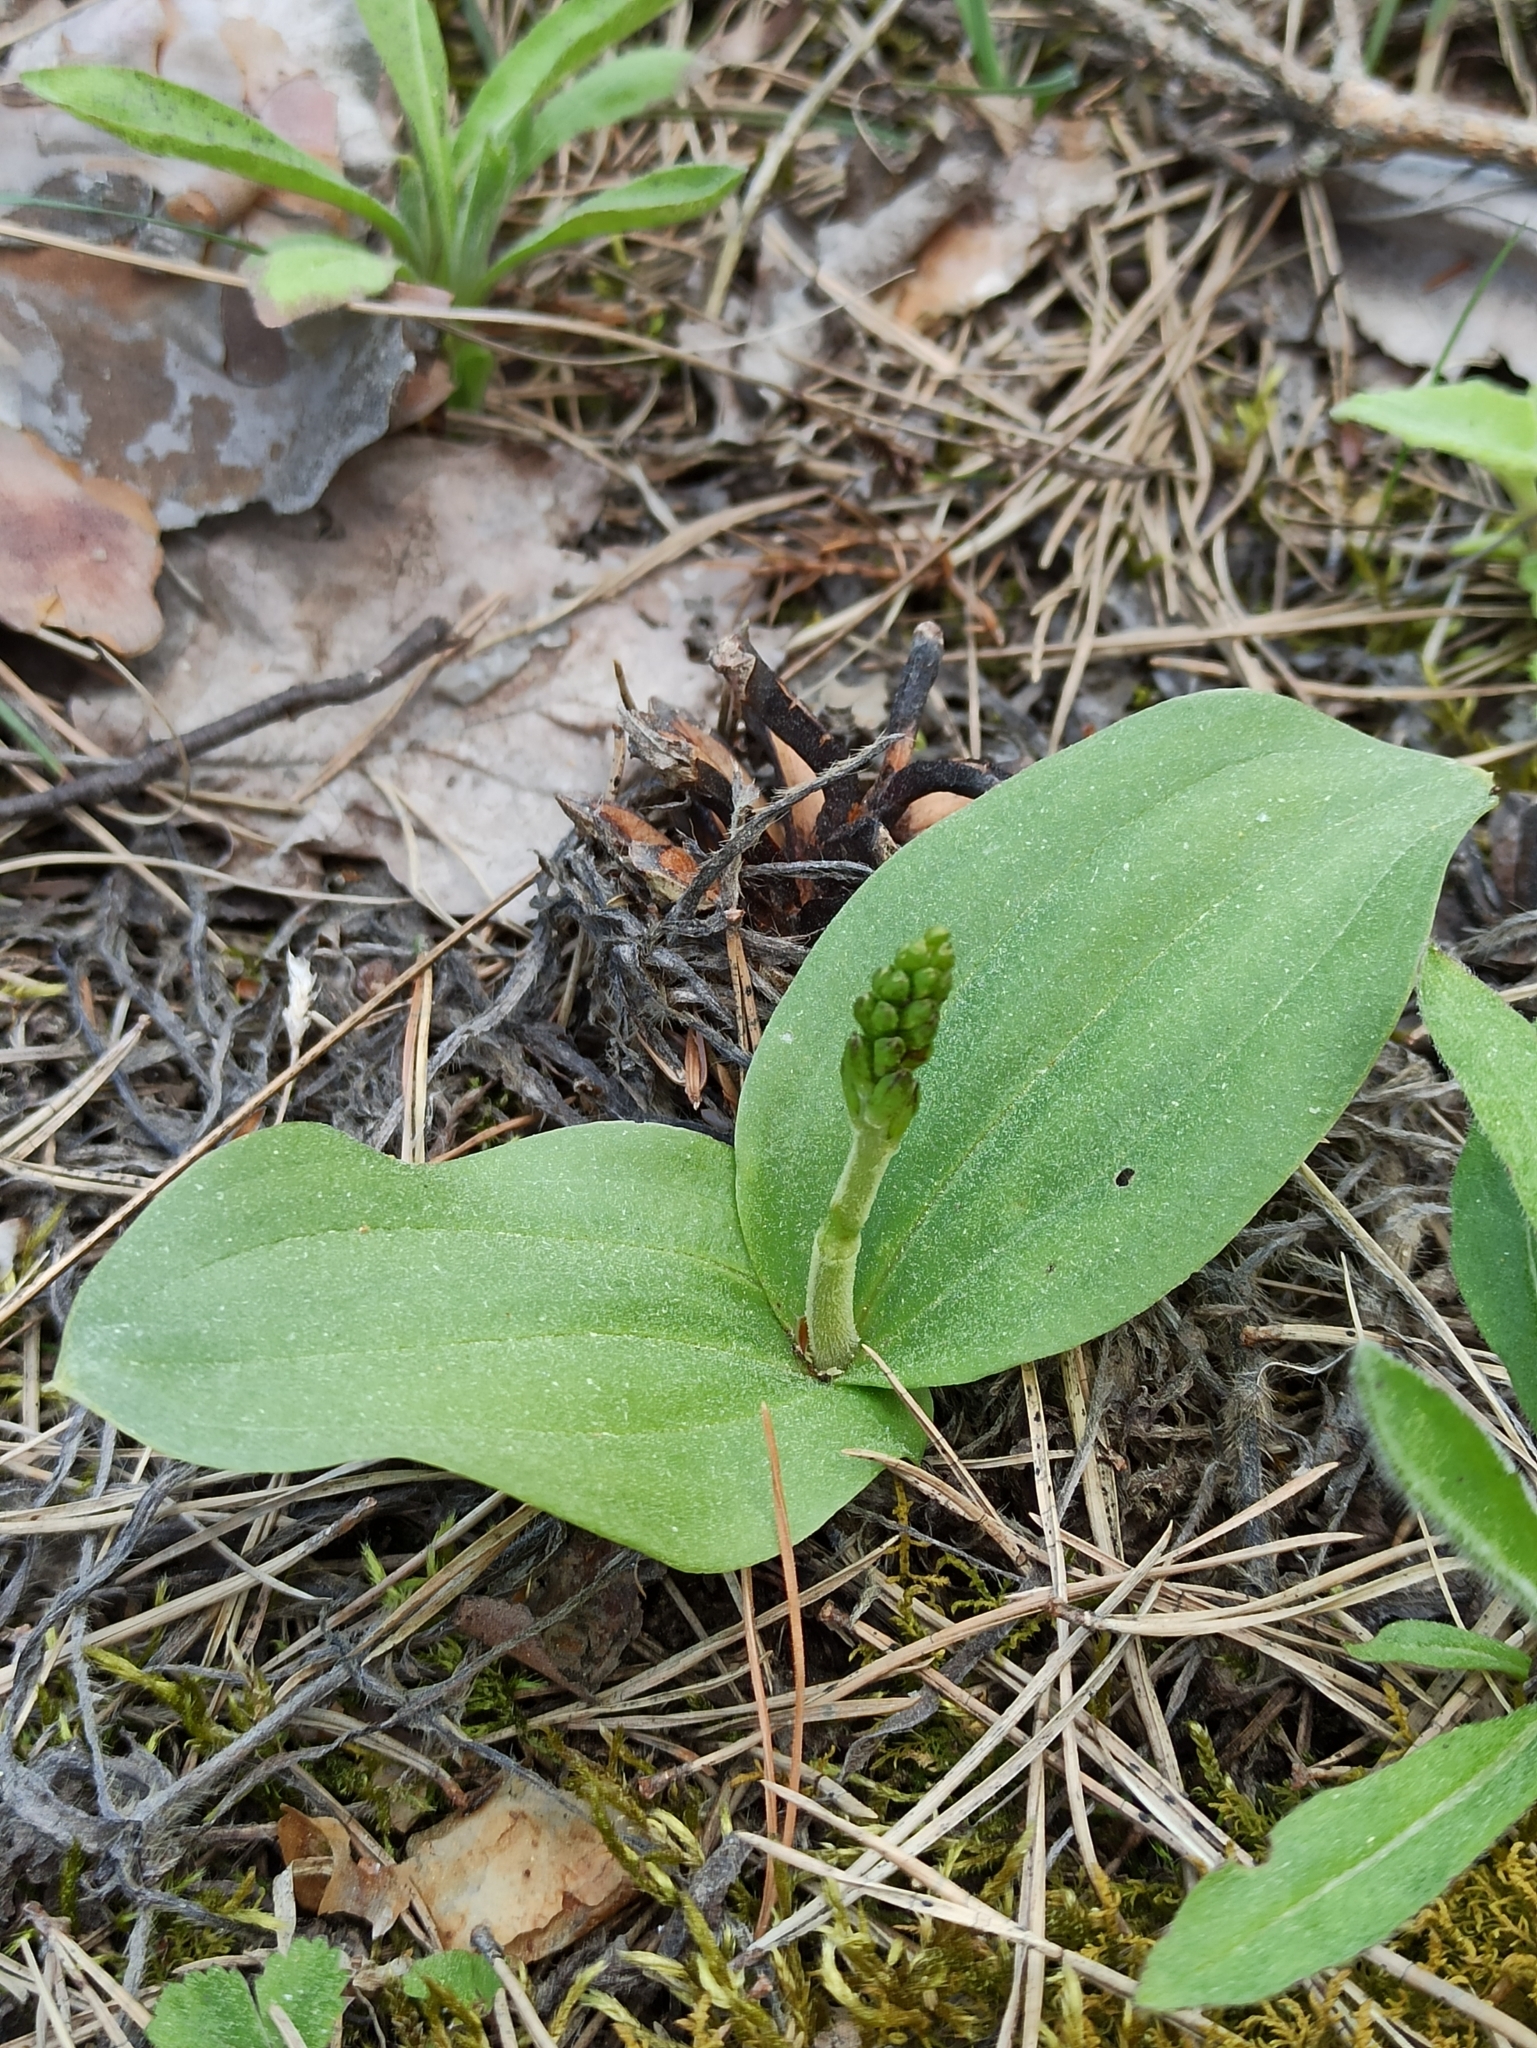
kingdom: Plantae
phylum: Tracheophyta
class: Liliopsida
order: Asparagales
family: Orchidaceae
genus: Neottia
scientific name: Neottia ovata
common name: Common twayblade
